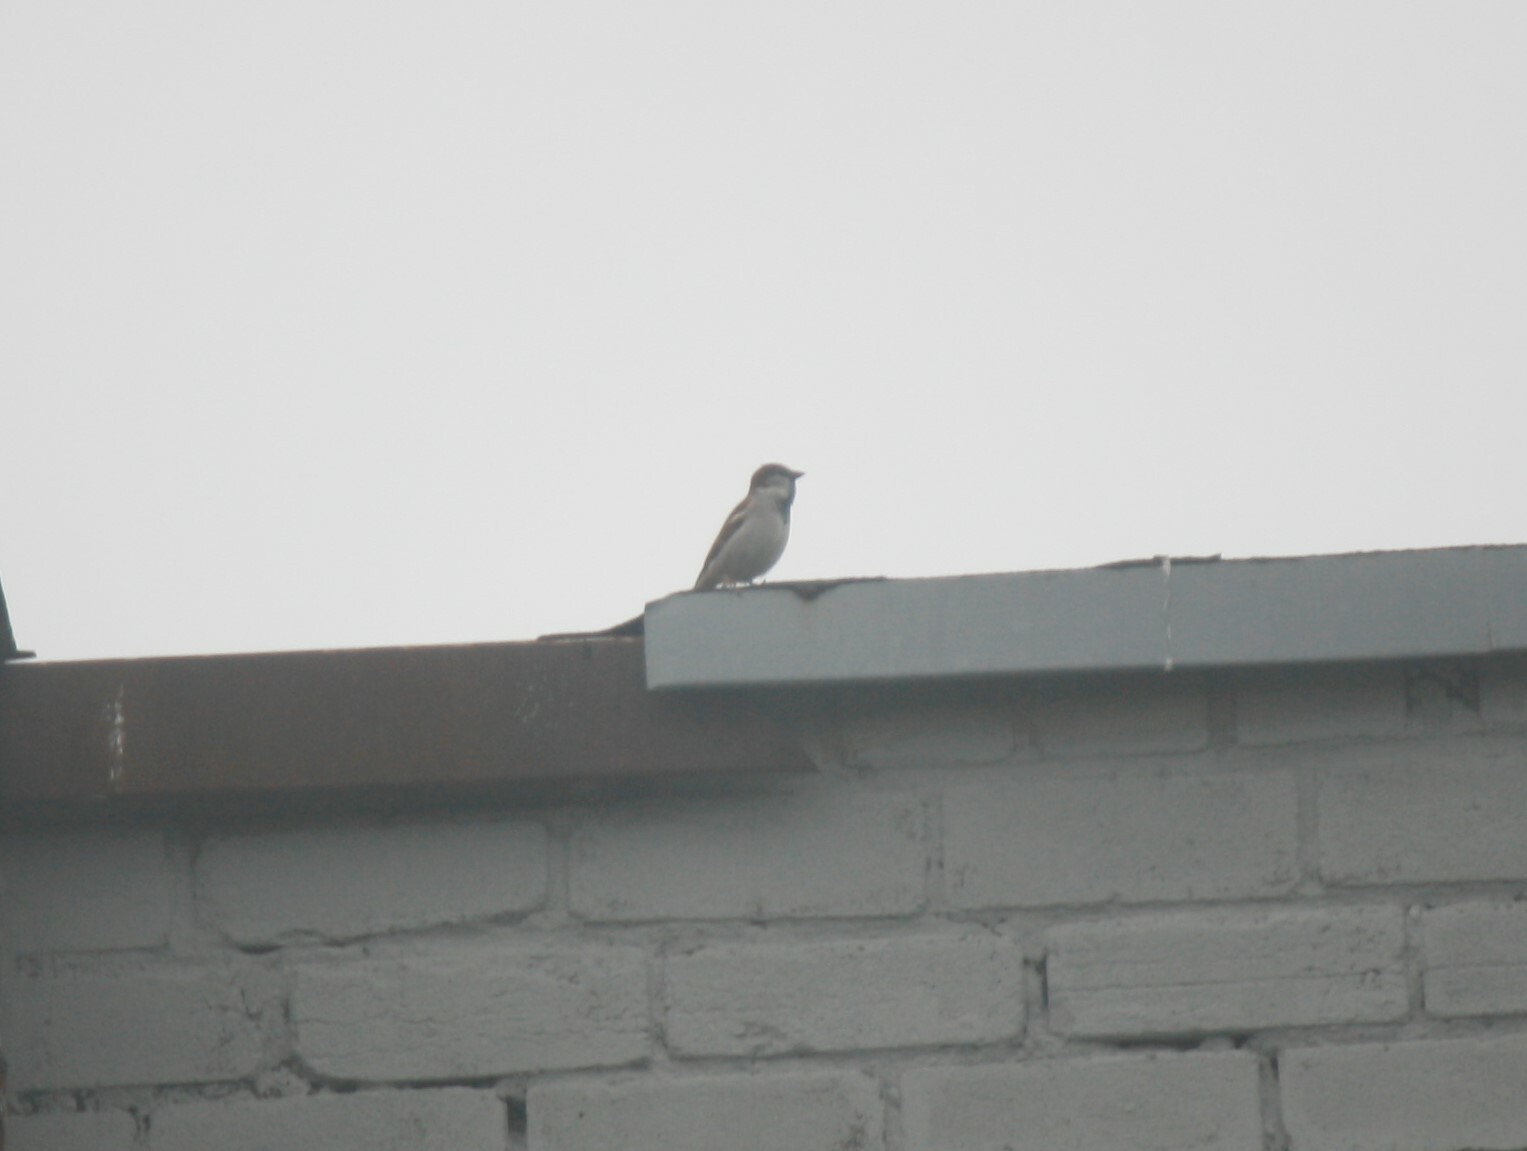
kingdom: Animalia
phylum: Chordata
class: Aves
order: Passeriformes
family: Passeridae
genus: Passer
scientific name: Passer domesticus
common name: House sparrow
